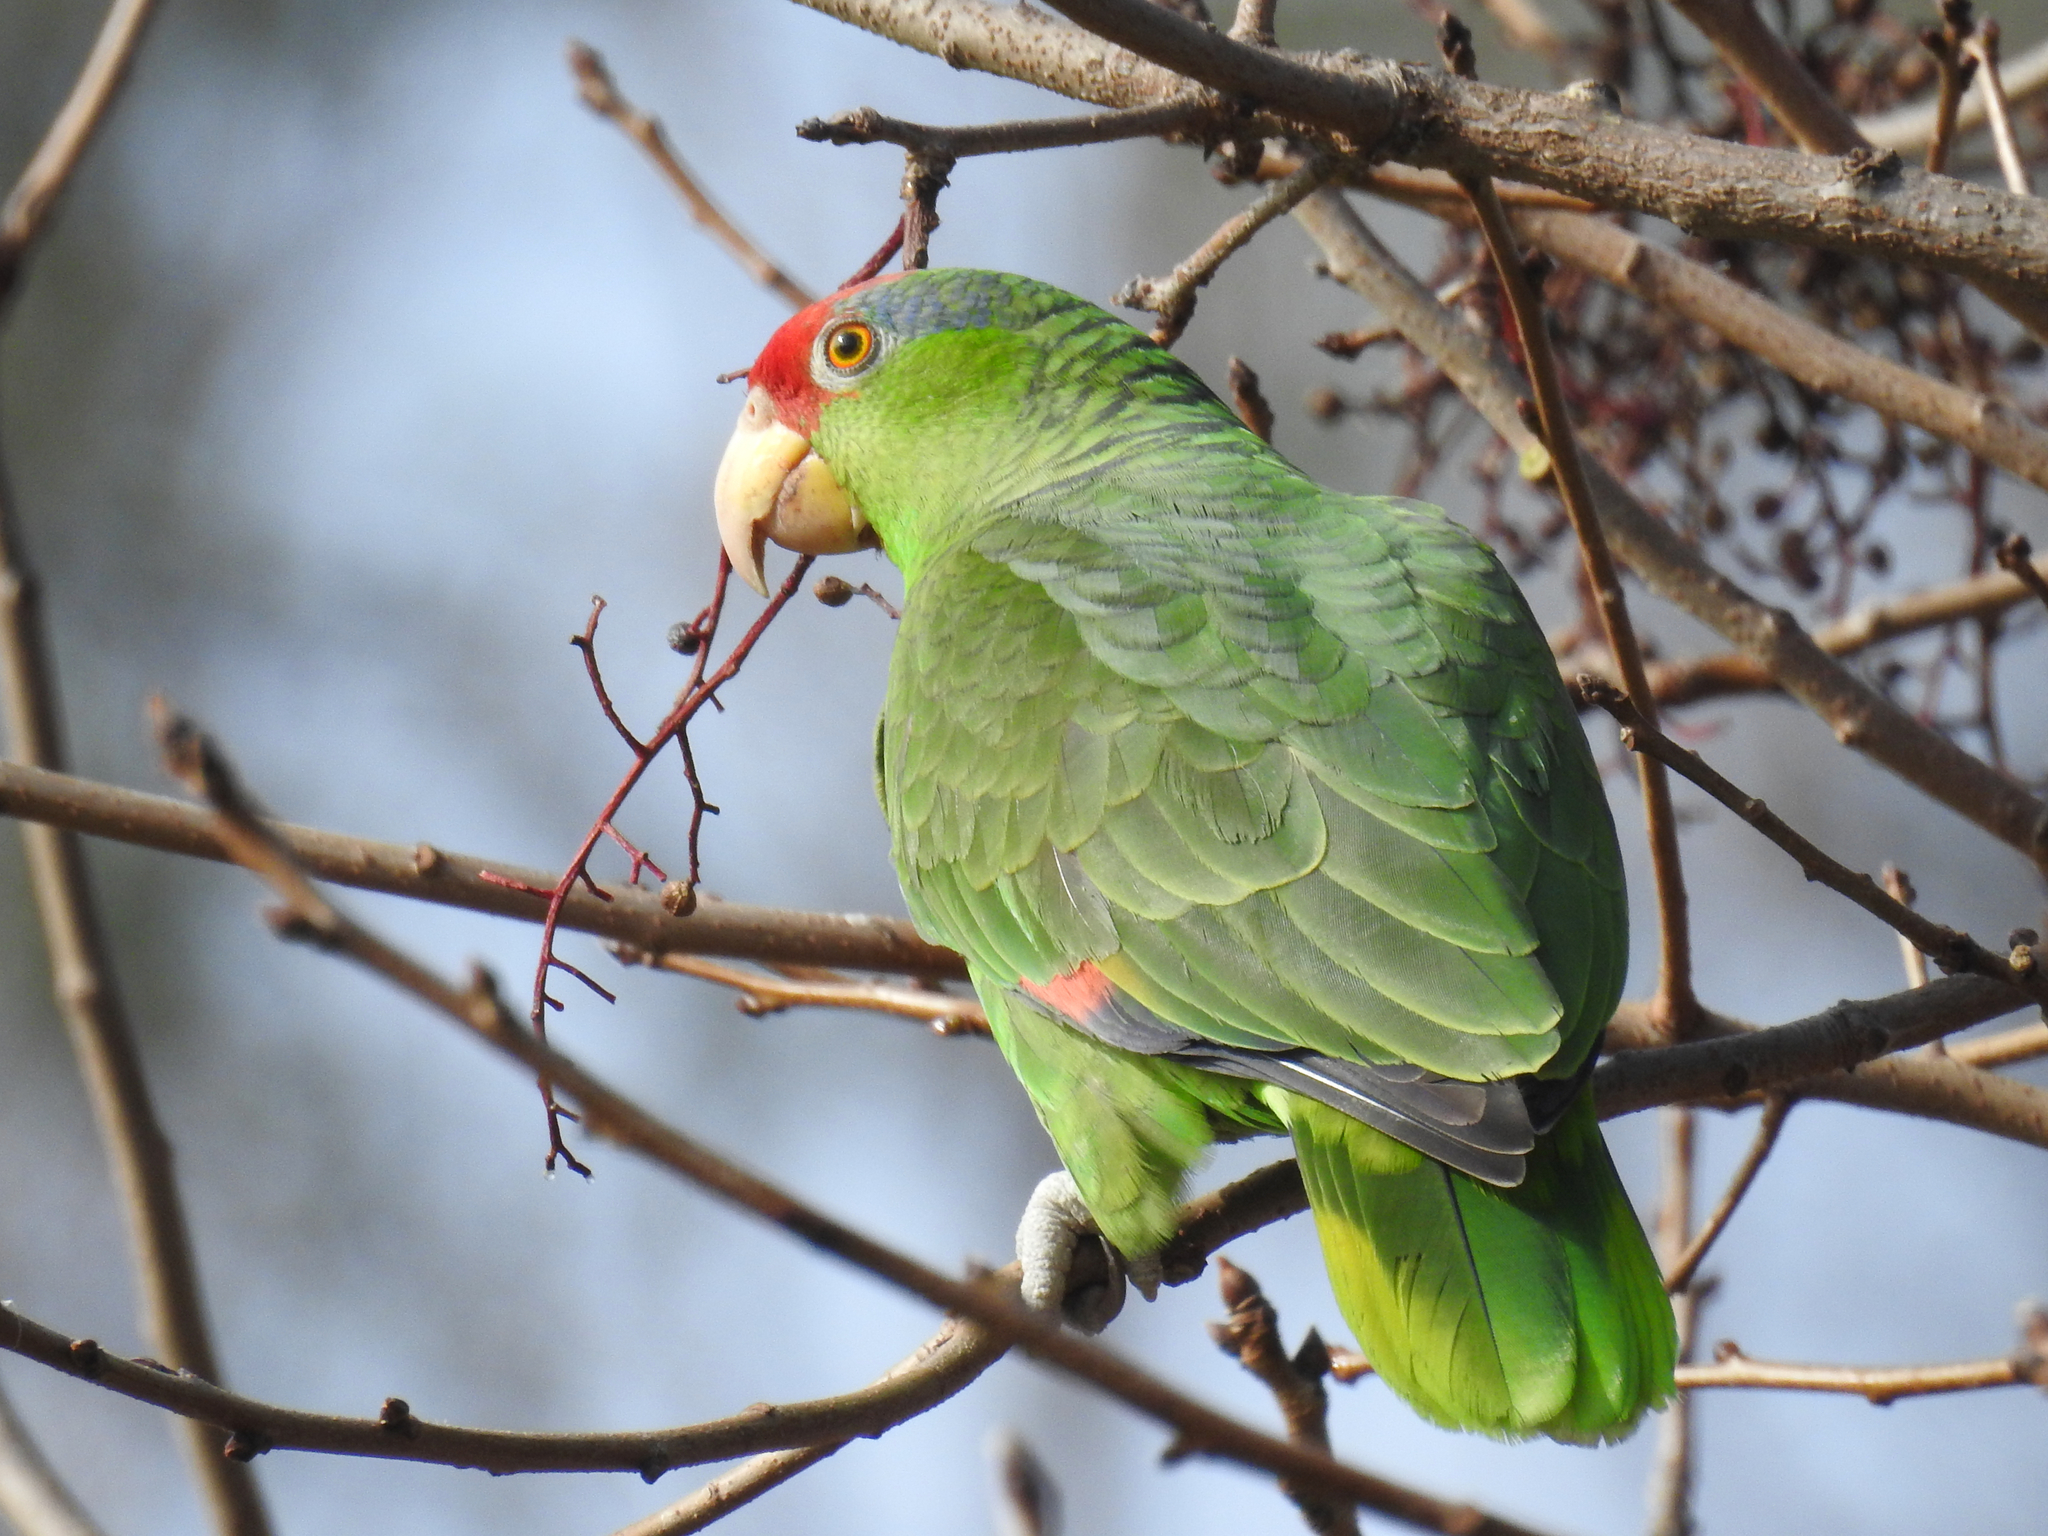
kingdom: Animalia
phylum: Chordata
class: Aves
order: Psittaciformes
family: Psittacidae
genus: Amazona
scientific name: Amazona viridigenalis
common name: Red-crowned amazon
